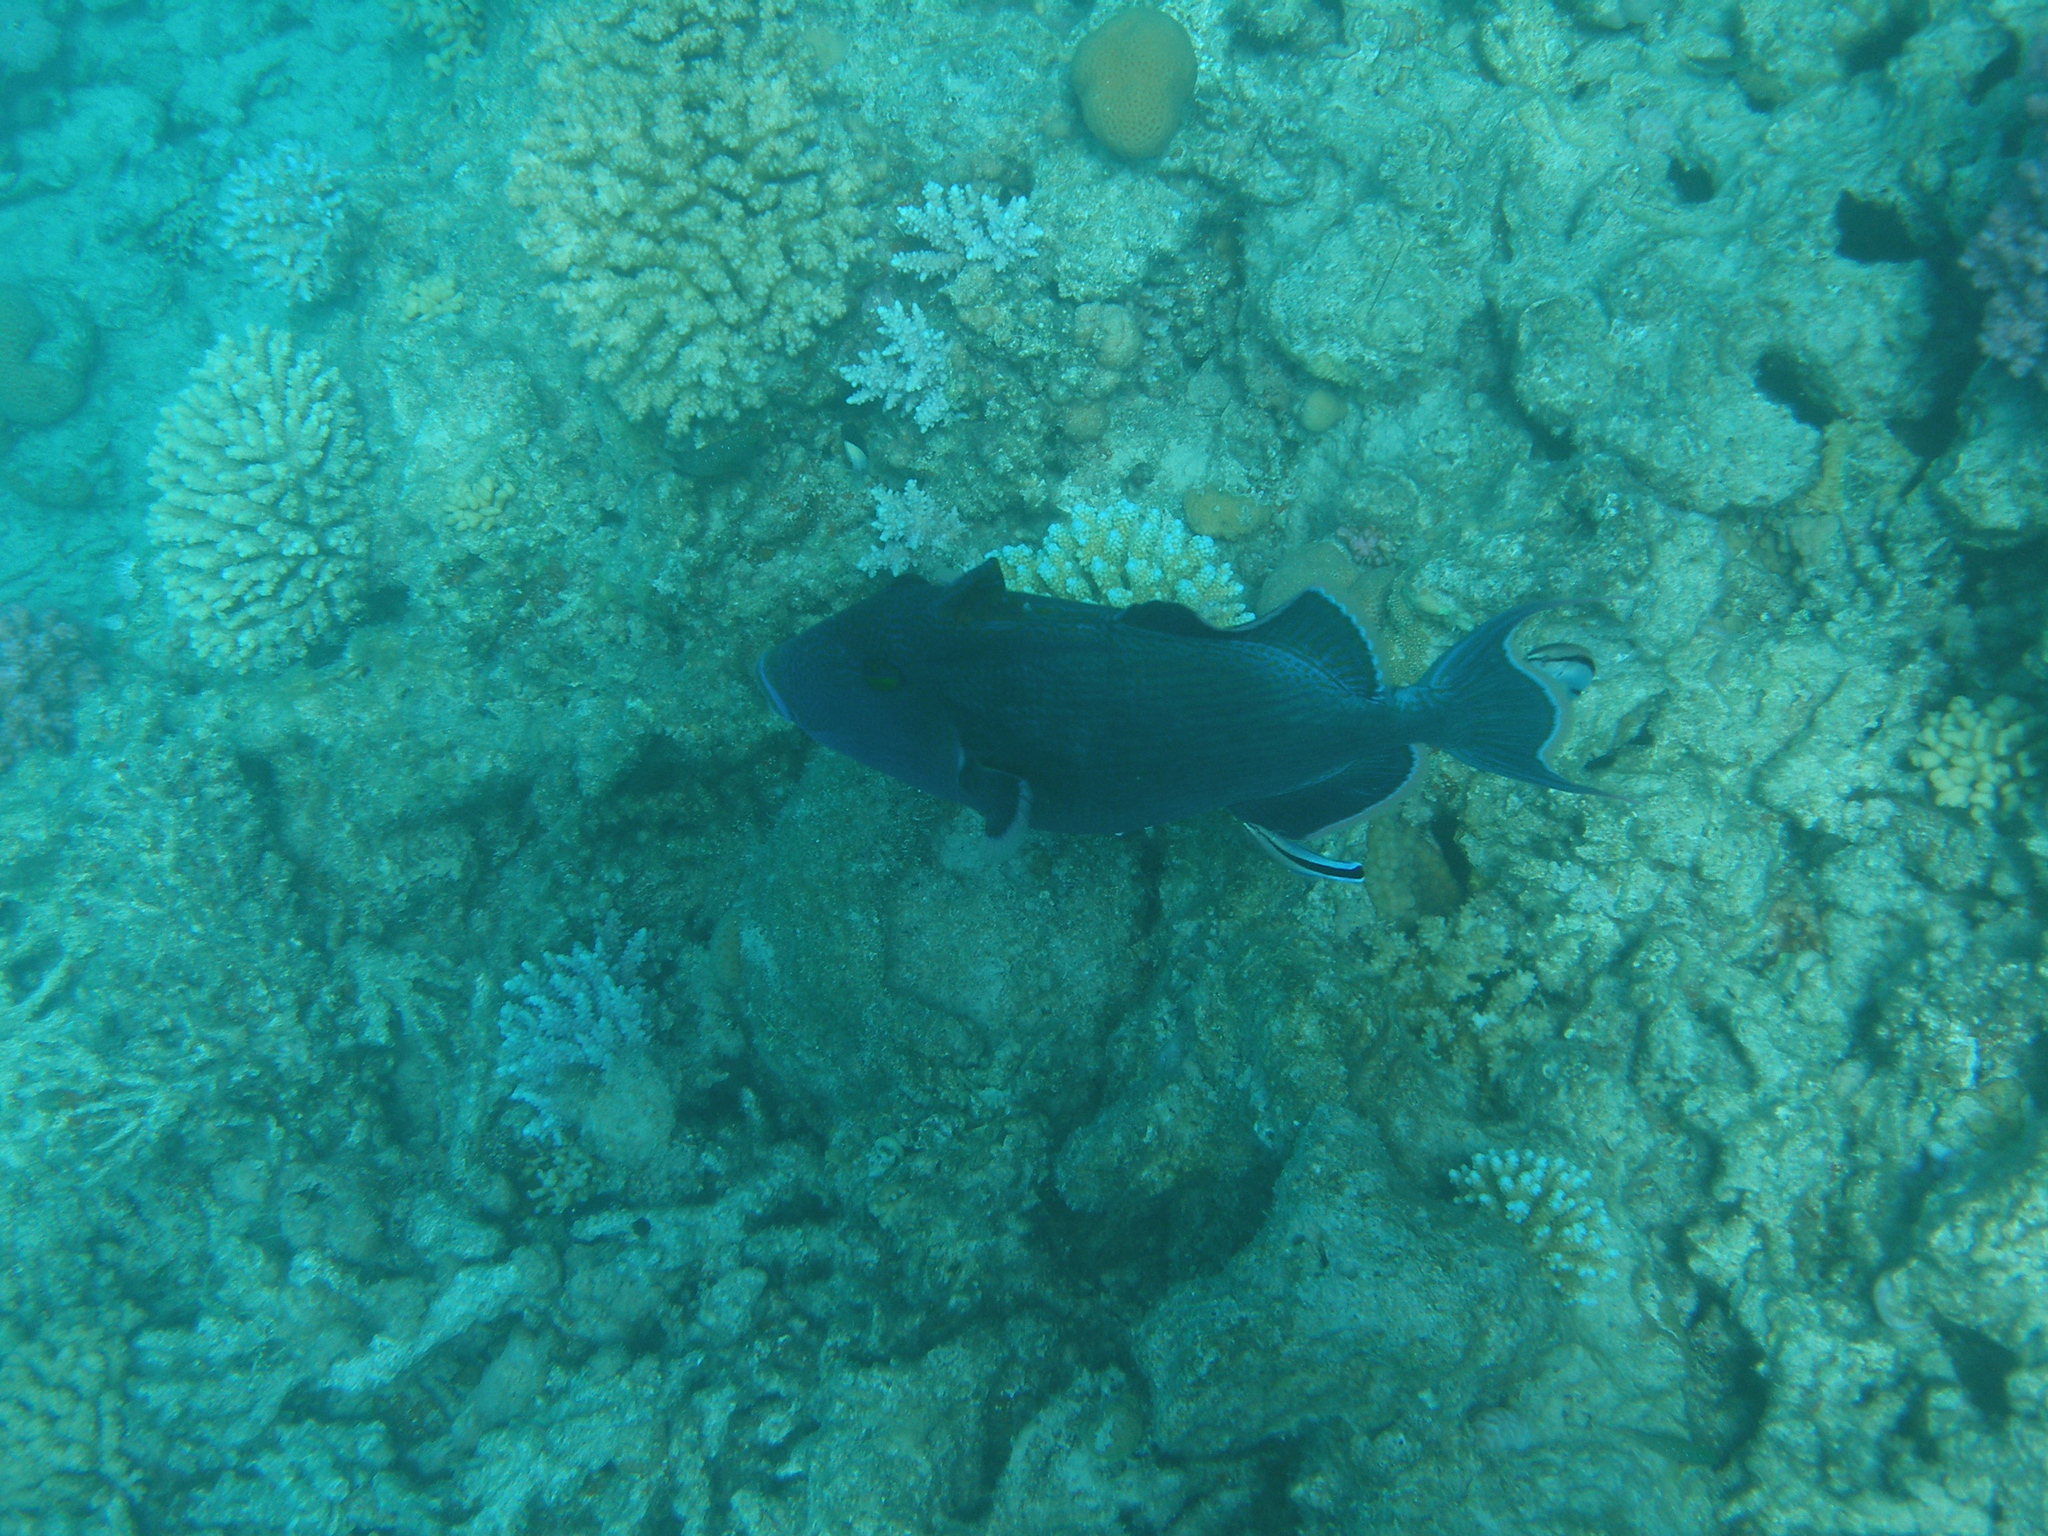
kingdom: Animalia
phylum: Chordata
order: Tetraodontiformes
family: Balistidae
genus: Pseudobalistes
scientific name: Pseudobalistes fuscus
